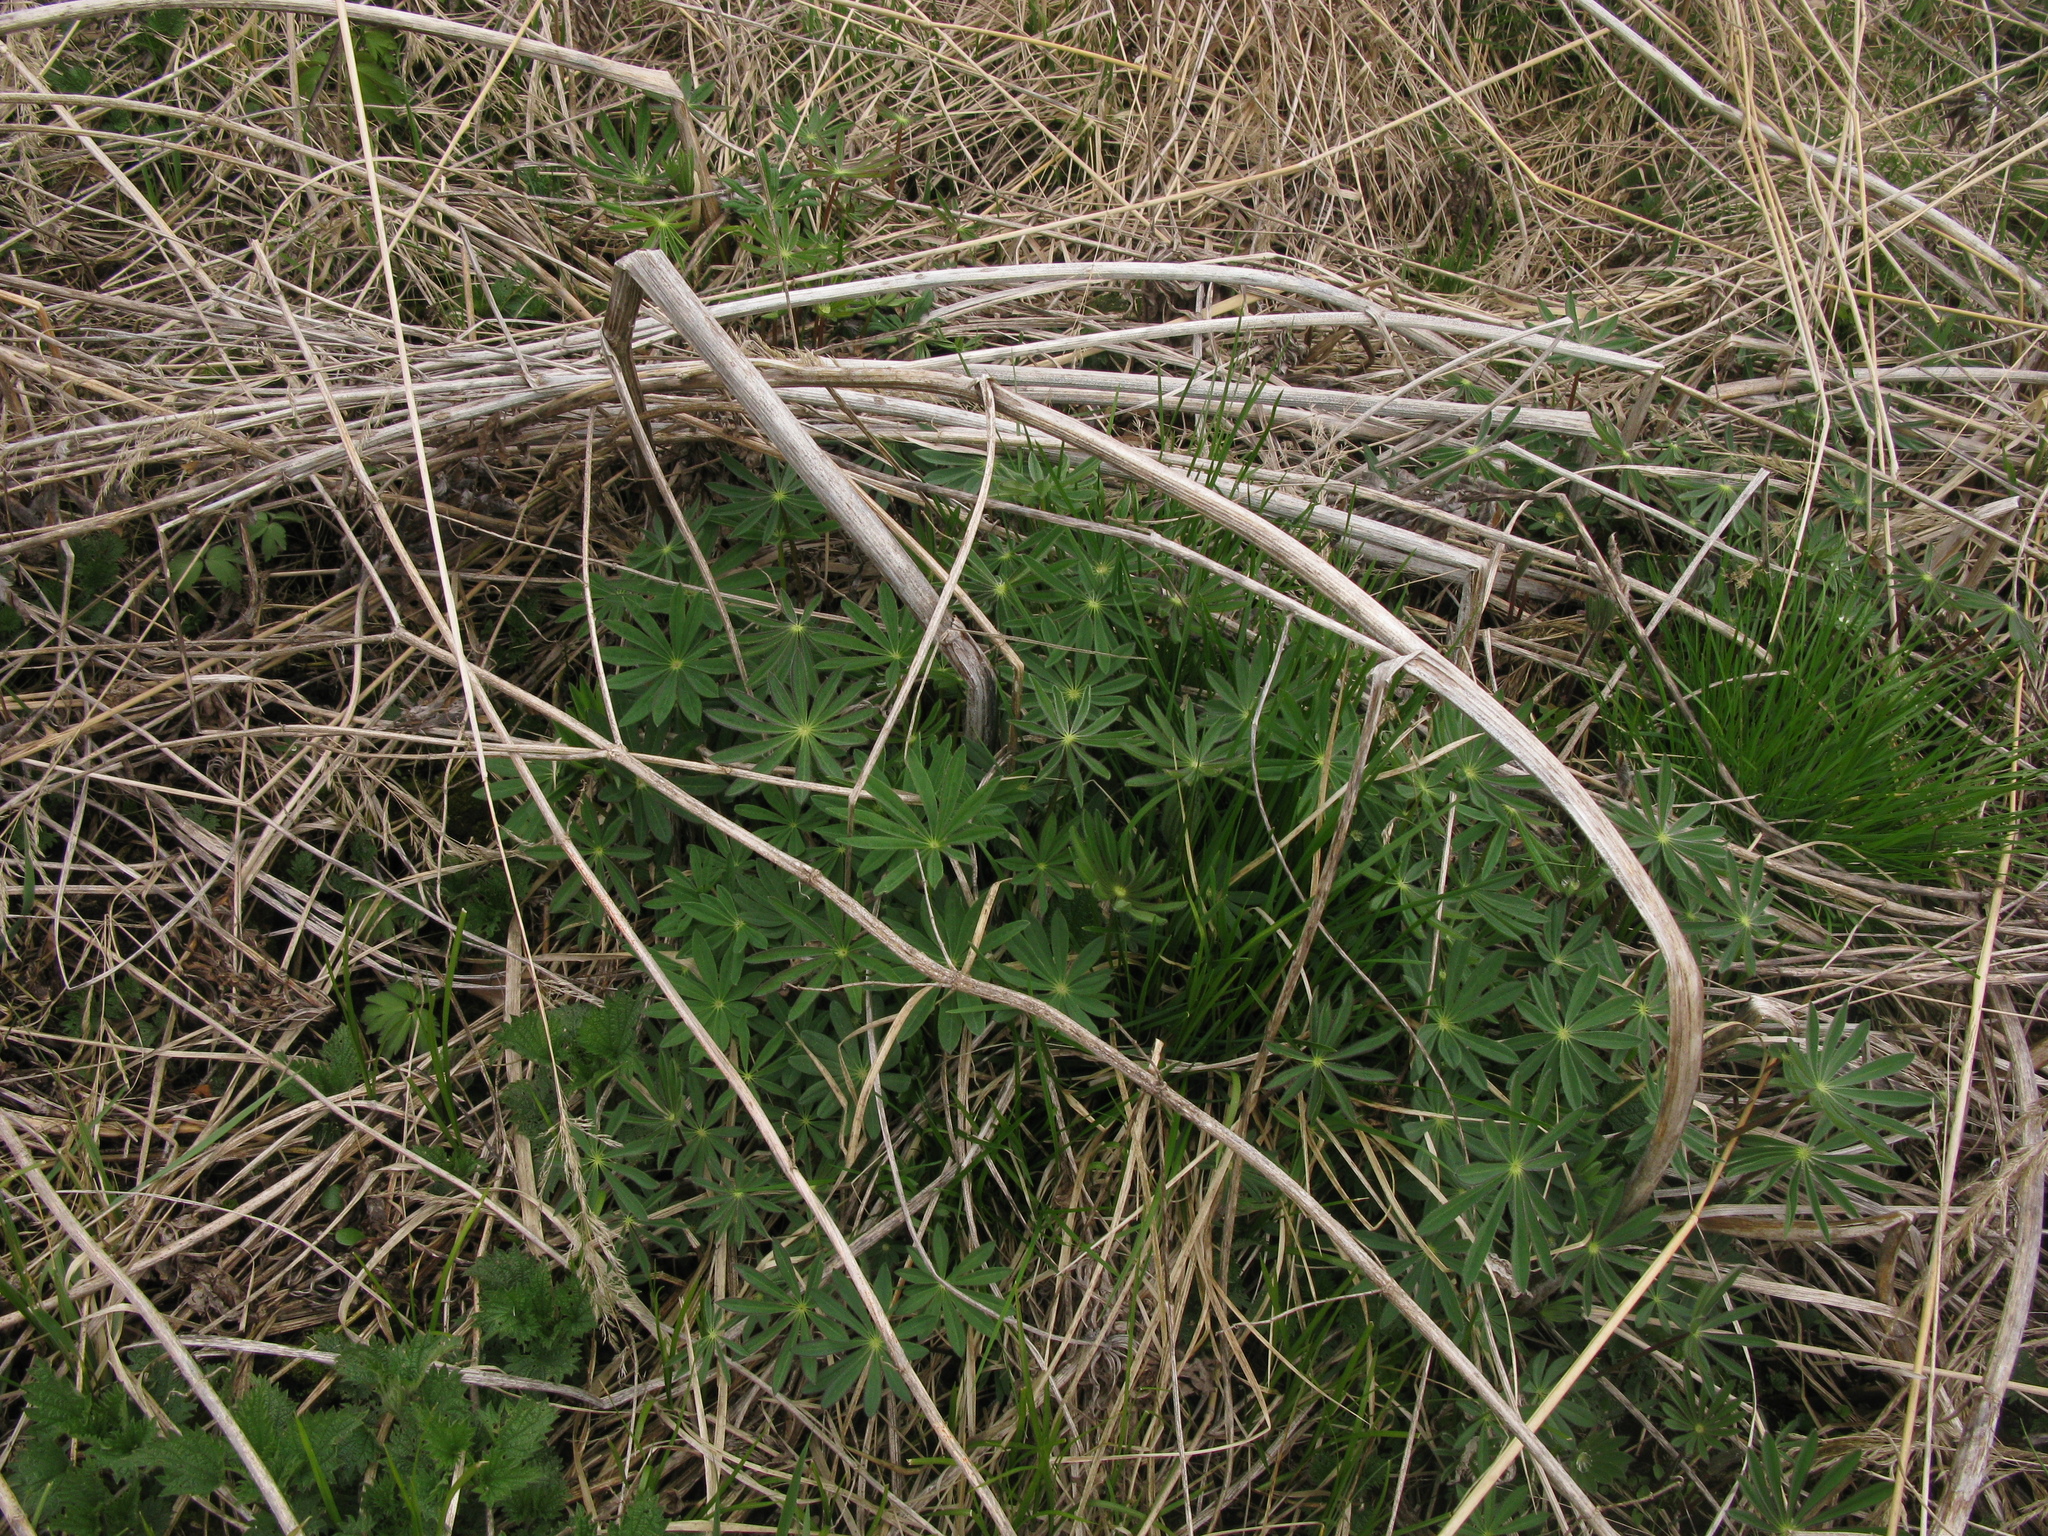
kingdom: Plantae
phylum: Tracheophyta
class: Magnoliopsida
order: Fabales
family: Fabaceae
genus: Lupinus
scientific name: Lupinus polyphyllus
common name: Garden lupin
